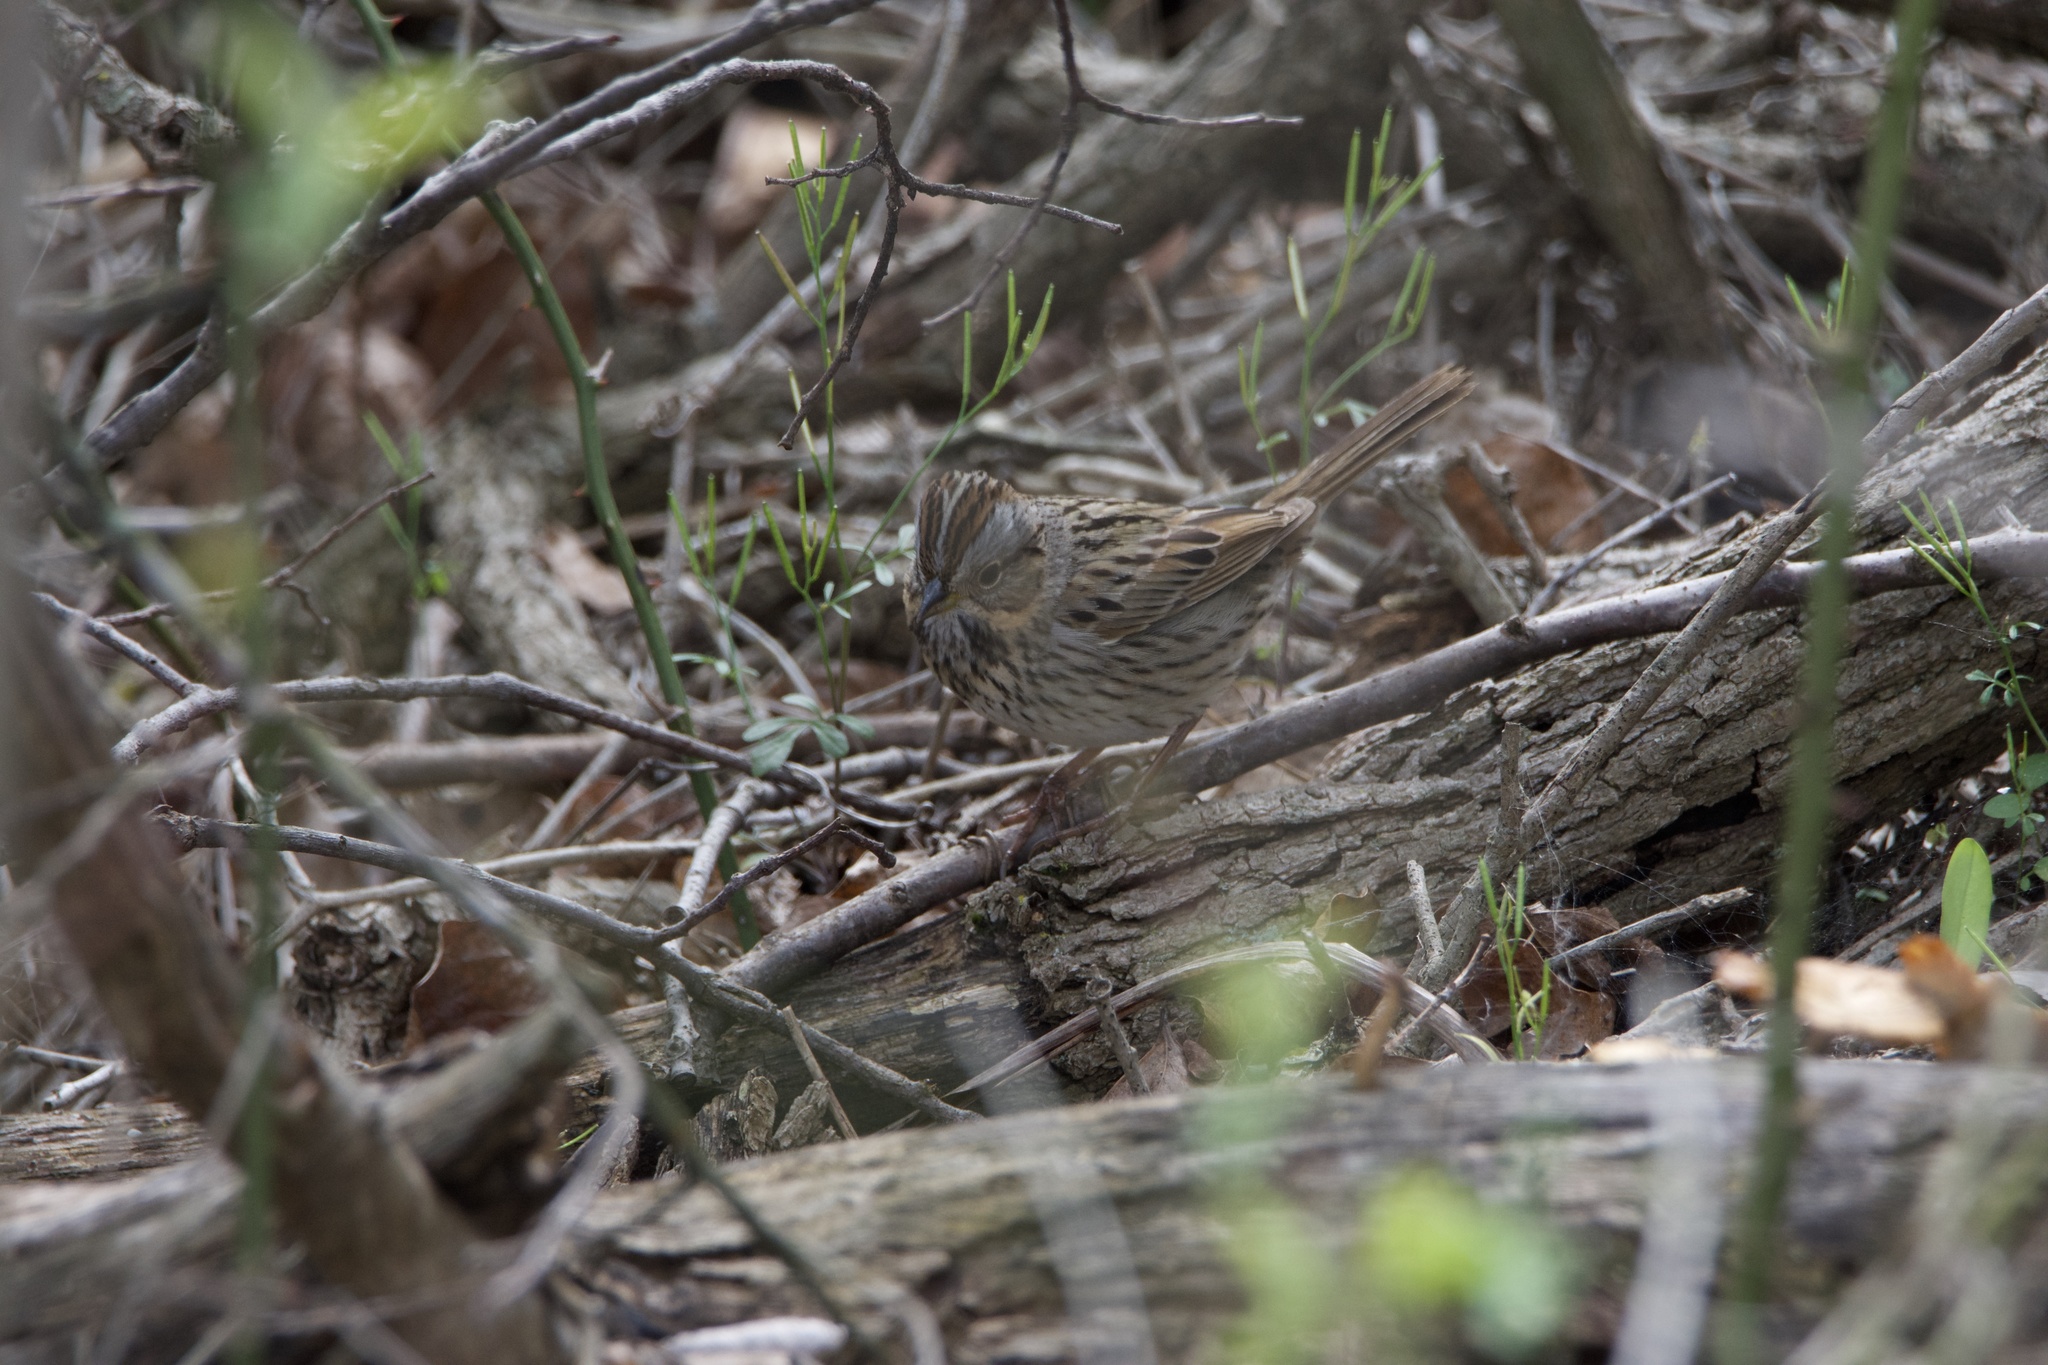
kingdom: Animalia
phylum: Chordata
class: Aves
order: Passeriformes
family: Passerellidae
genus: Melospiza
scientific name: Melospiza lincolnii
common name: Lincoln's sparrow
